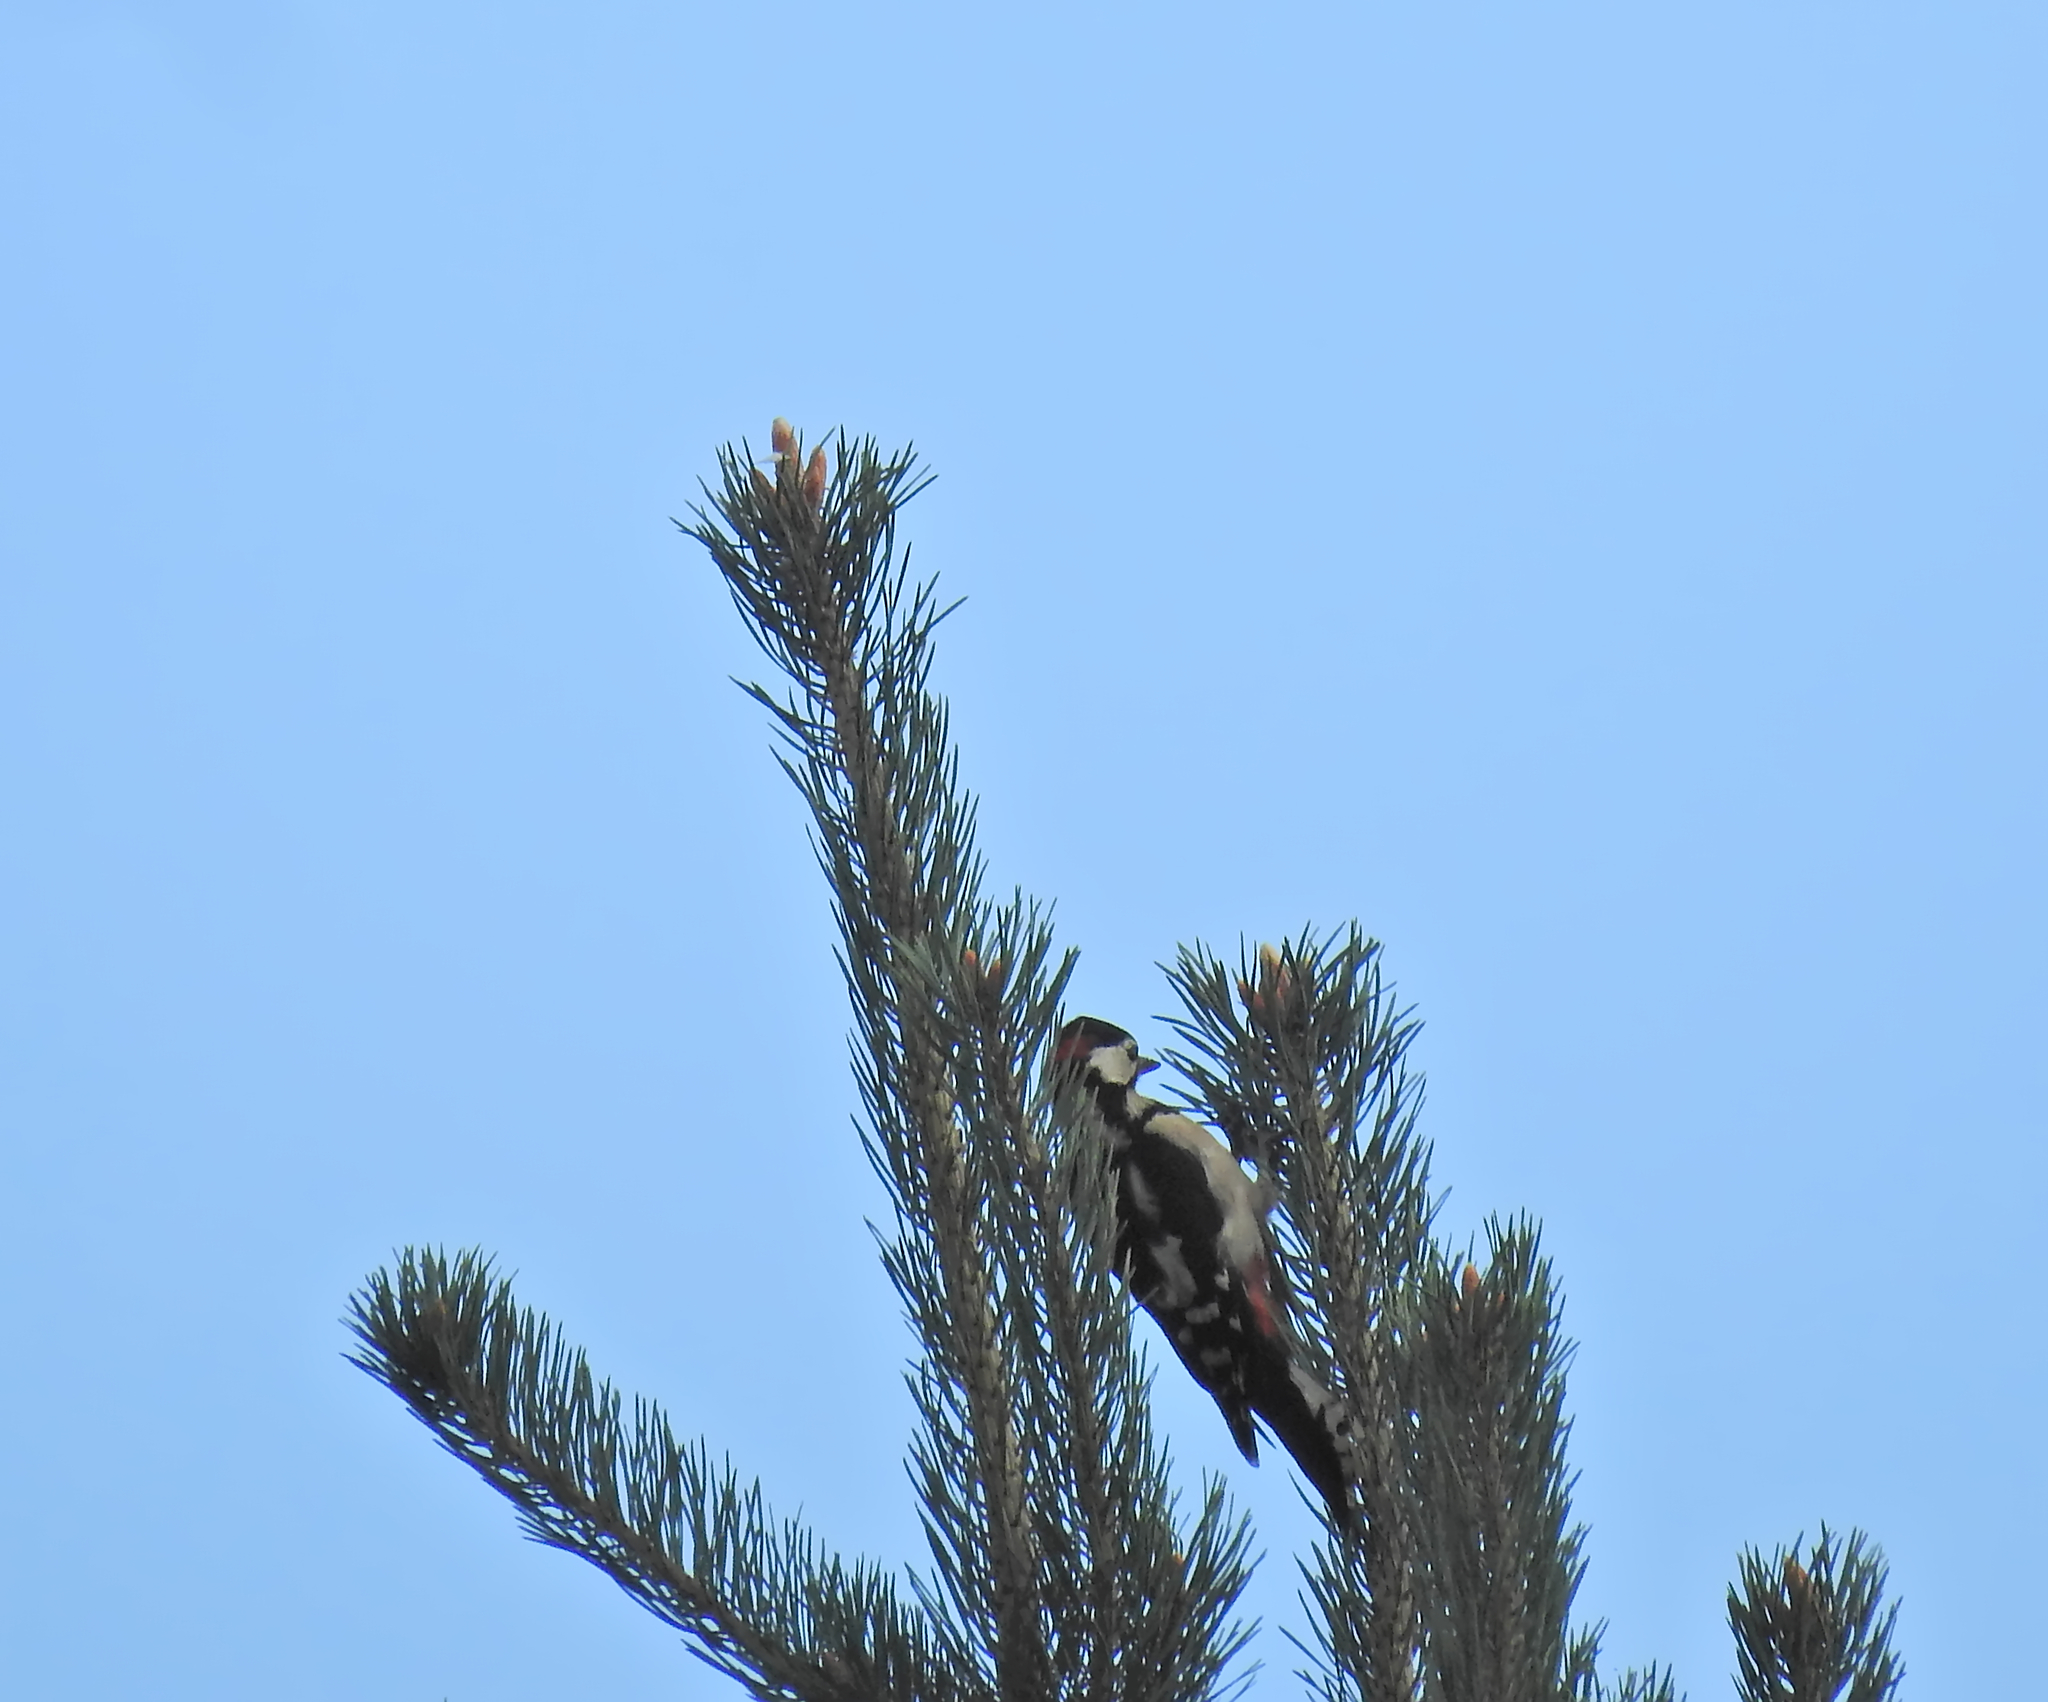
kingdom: Animalia
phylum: Chordata
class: Aves
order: Piciformes
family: Picidae
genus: Dendrocopos
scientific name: Dendrocopos major
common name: Great spotted woodpecker
